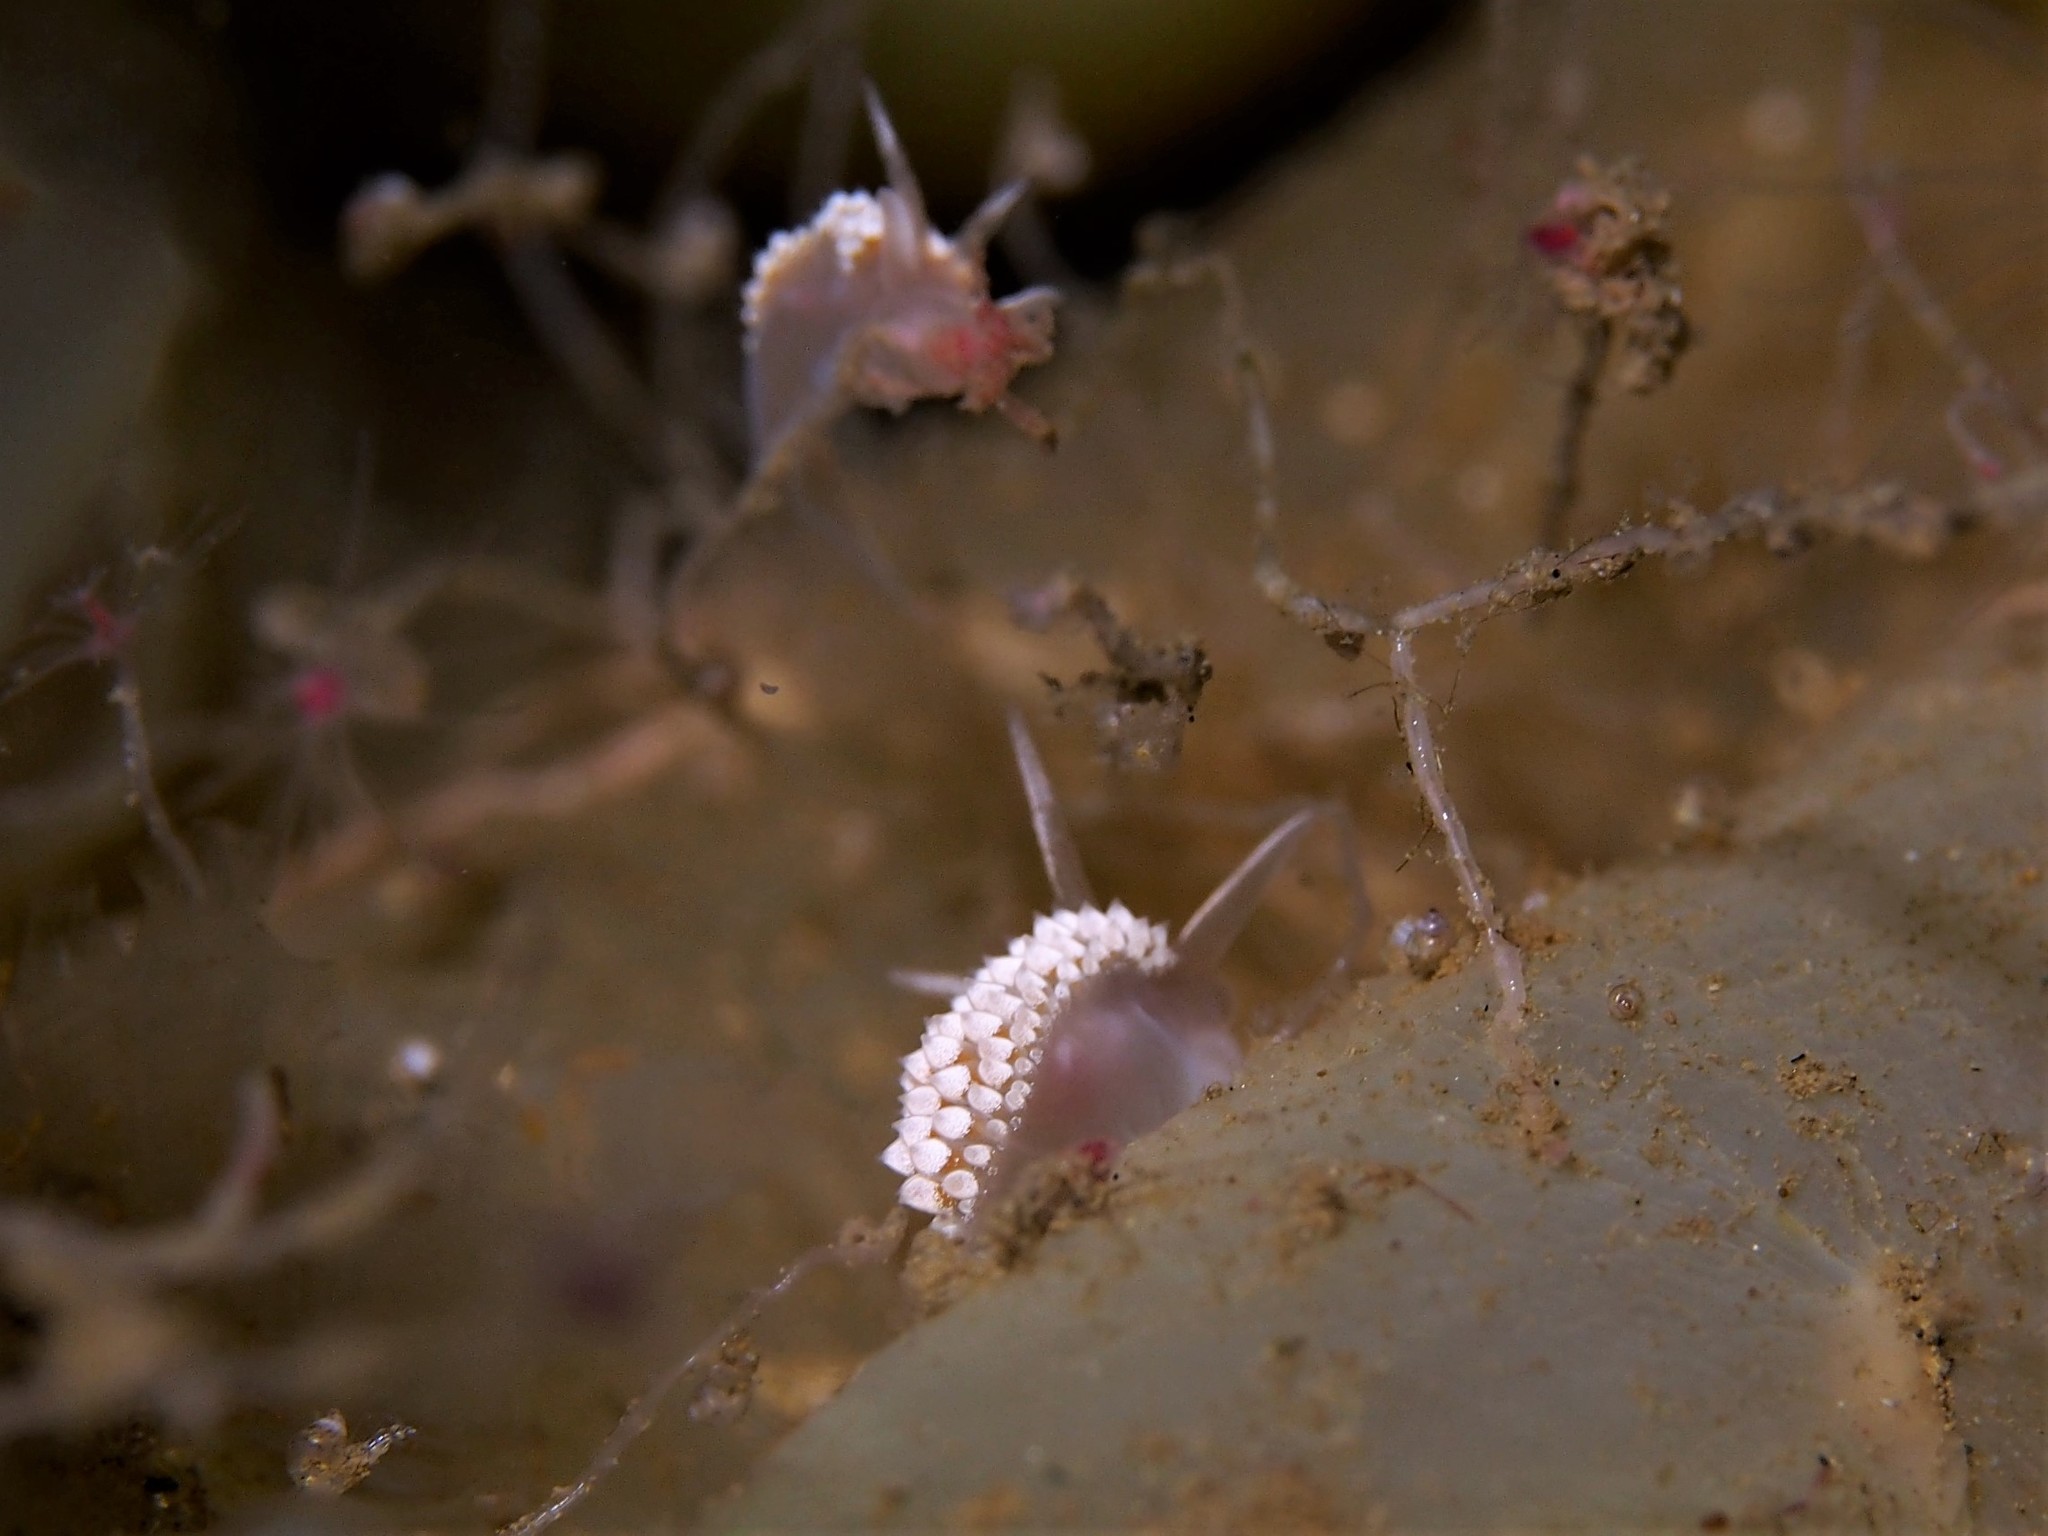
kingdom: Animalia
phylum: Mollusca
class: Gastropoda
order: Nudibranchia
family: Coryphellidae
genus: Coryphella
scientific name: Coryphella verrucosa
